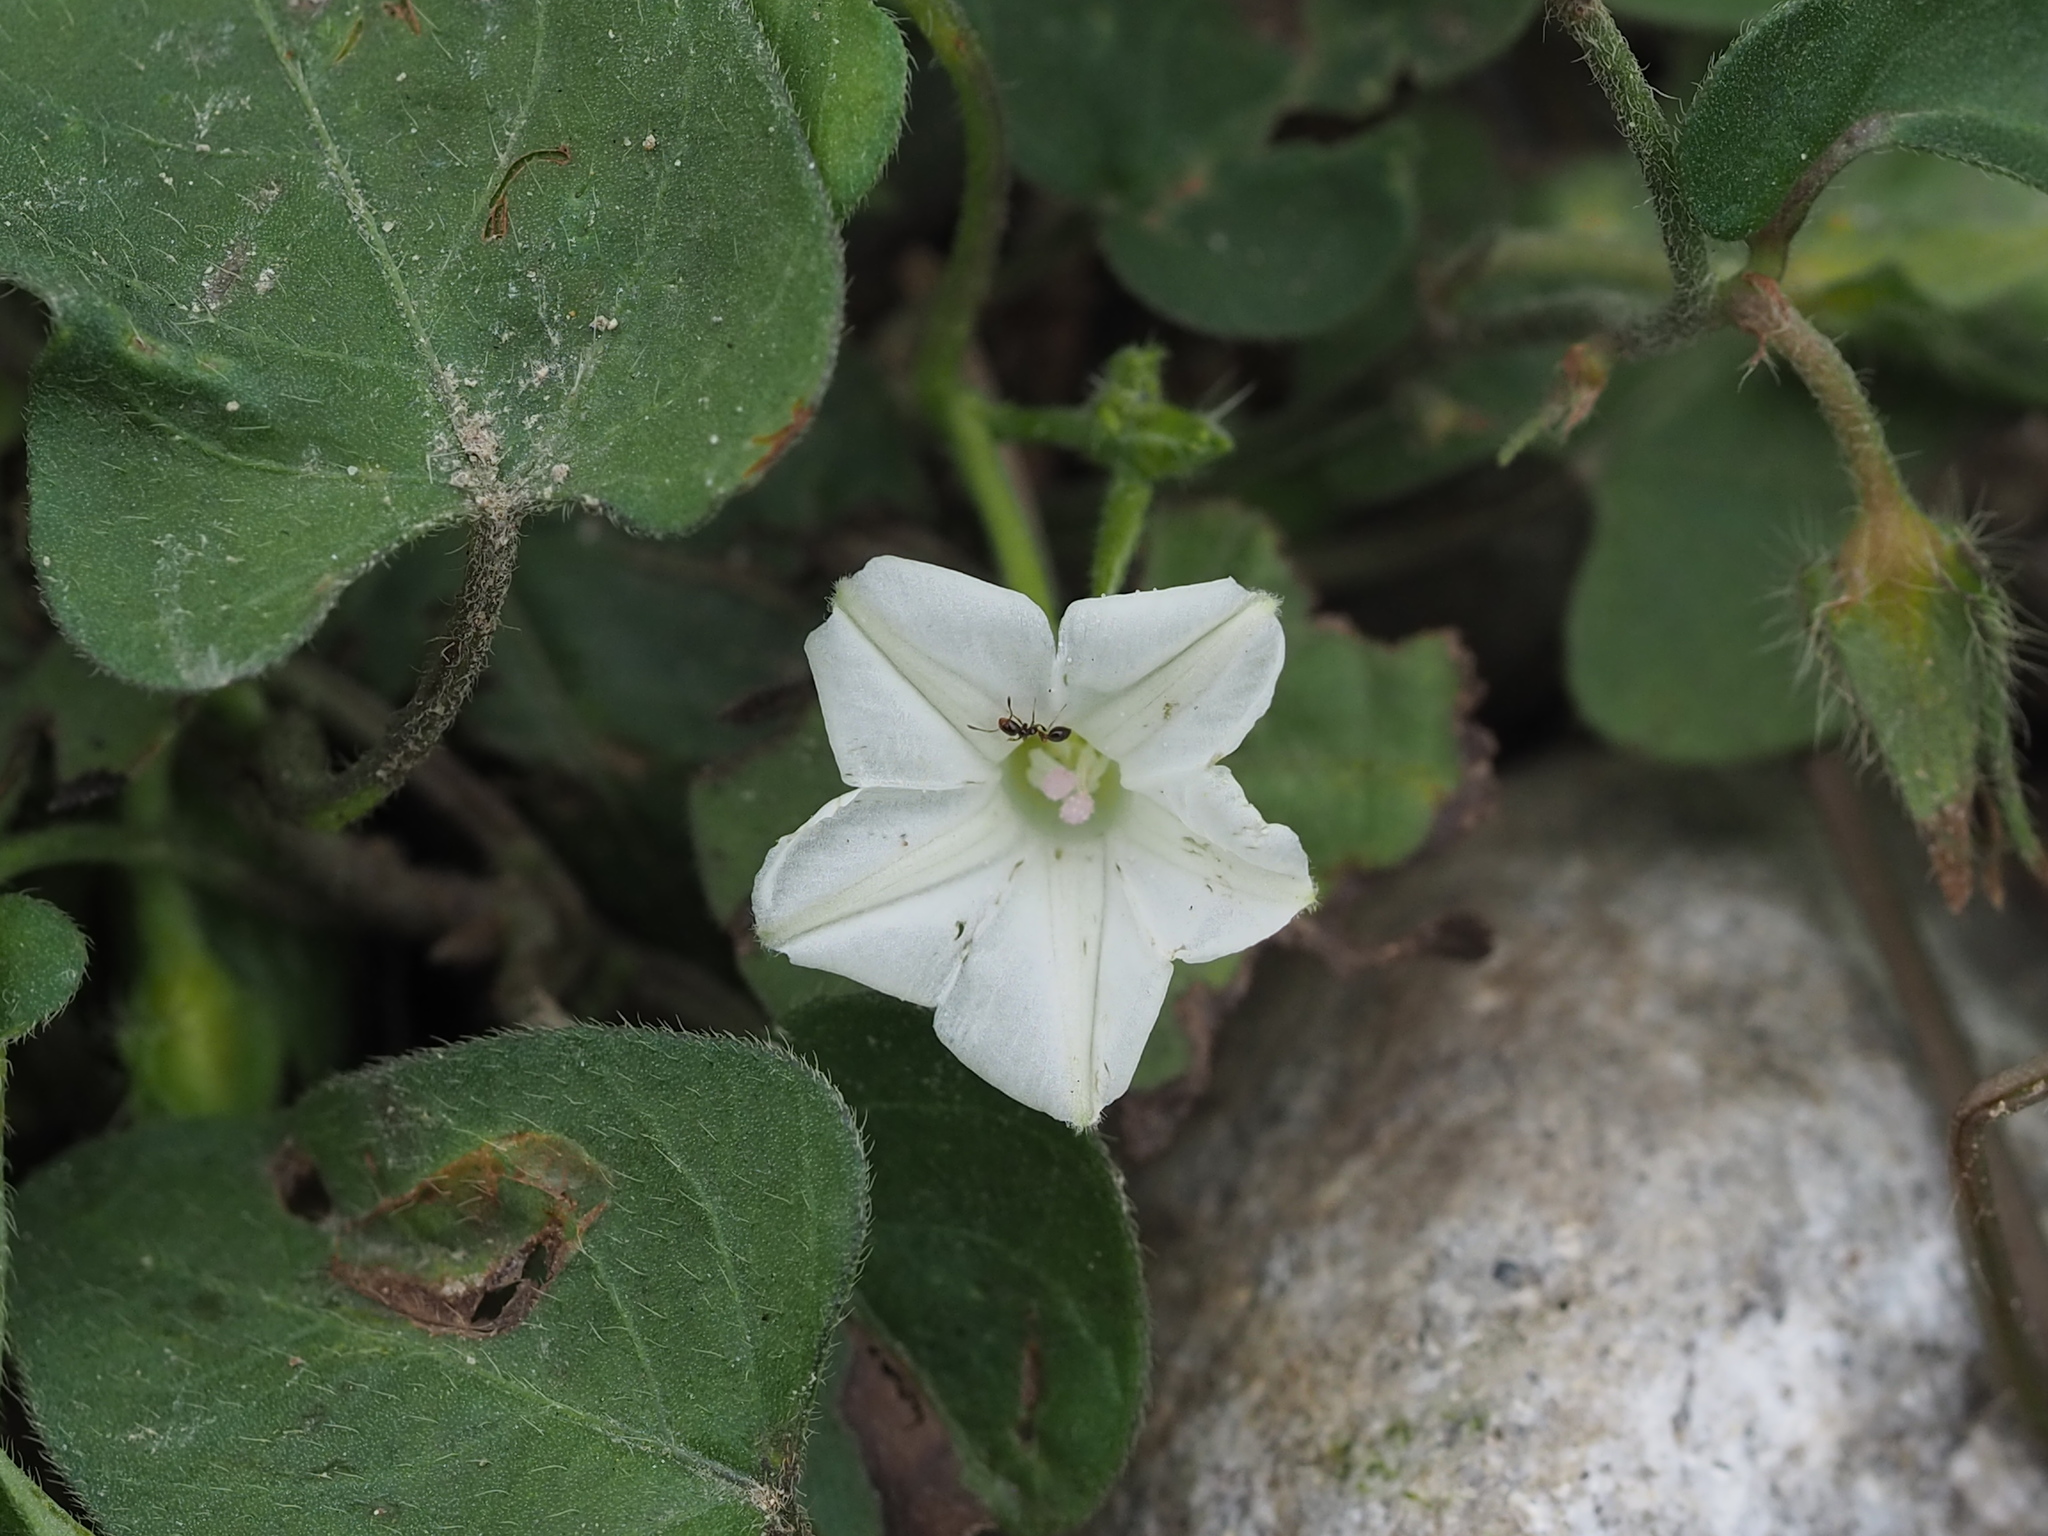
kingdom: Plantae
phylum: Tracheophyta
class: Magnoliopsida
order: Solanales
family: Convolvulaceae
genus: Ipomoea
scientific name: Ipomoea biflora
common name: Bellvine
